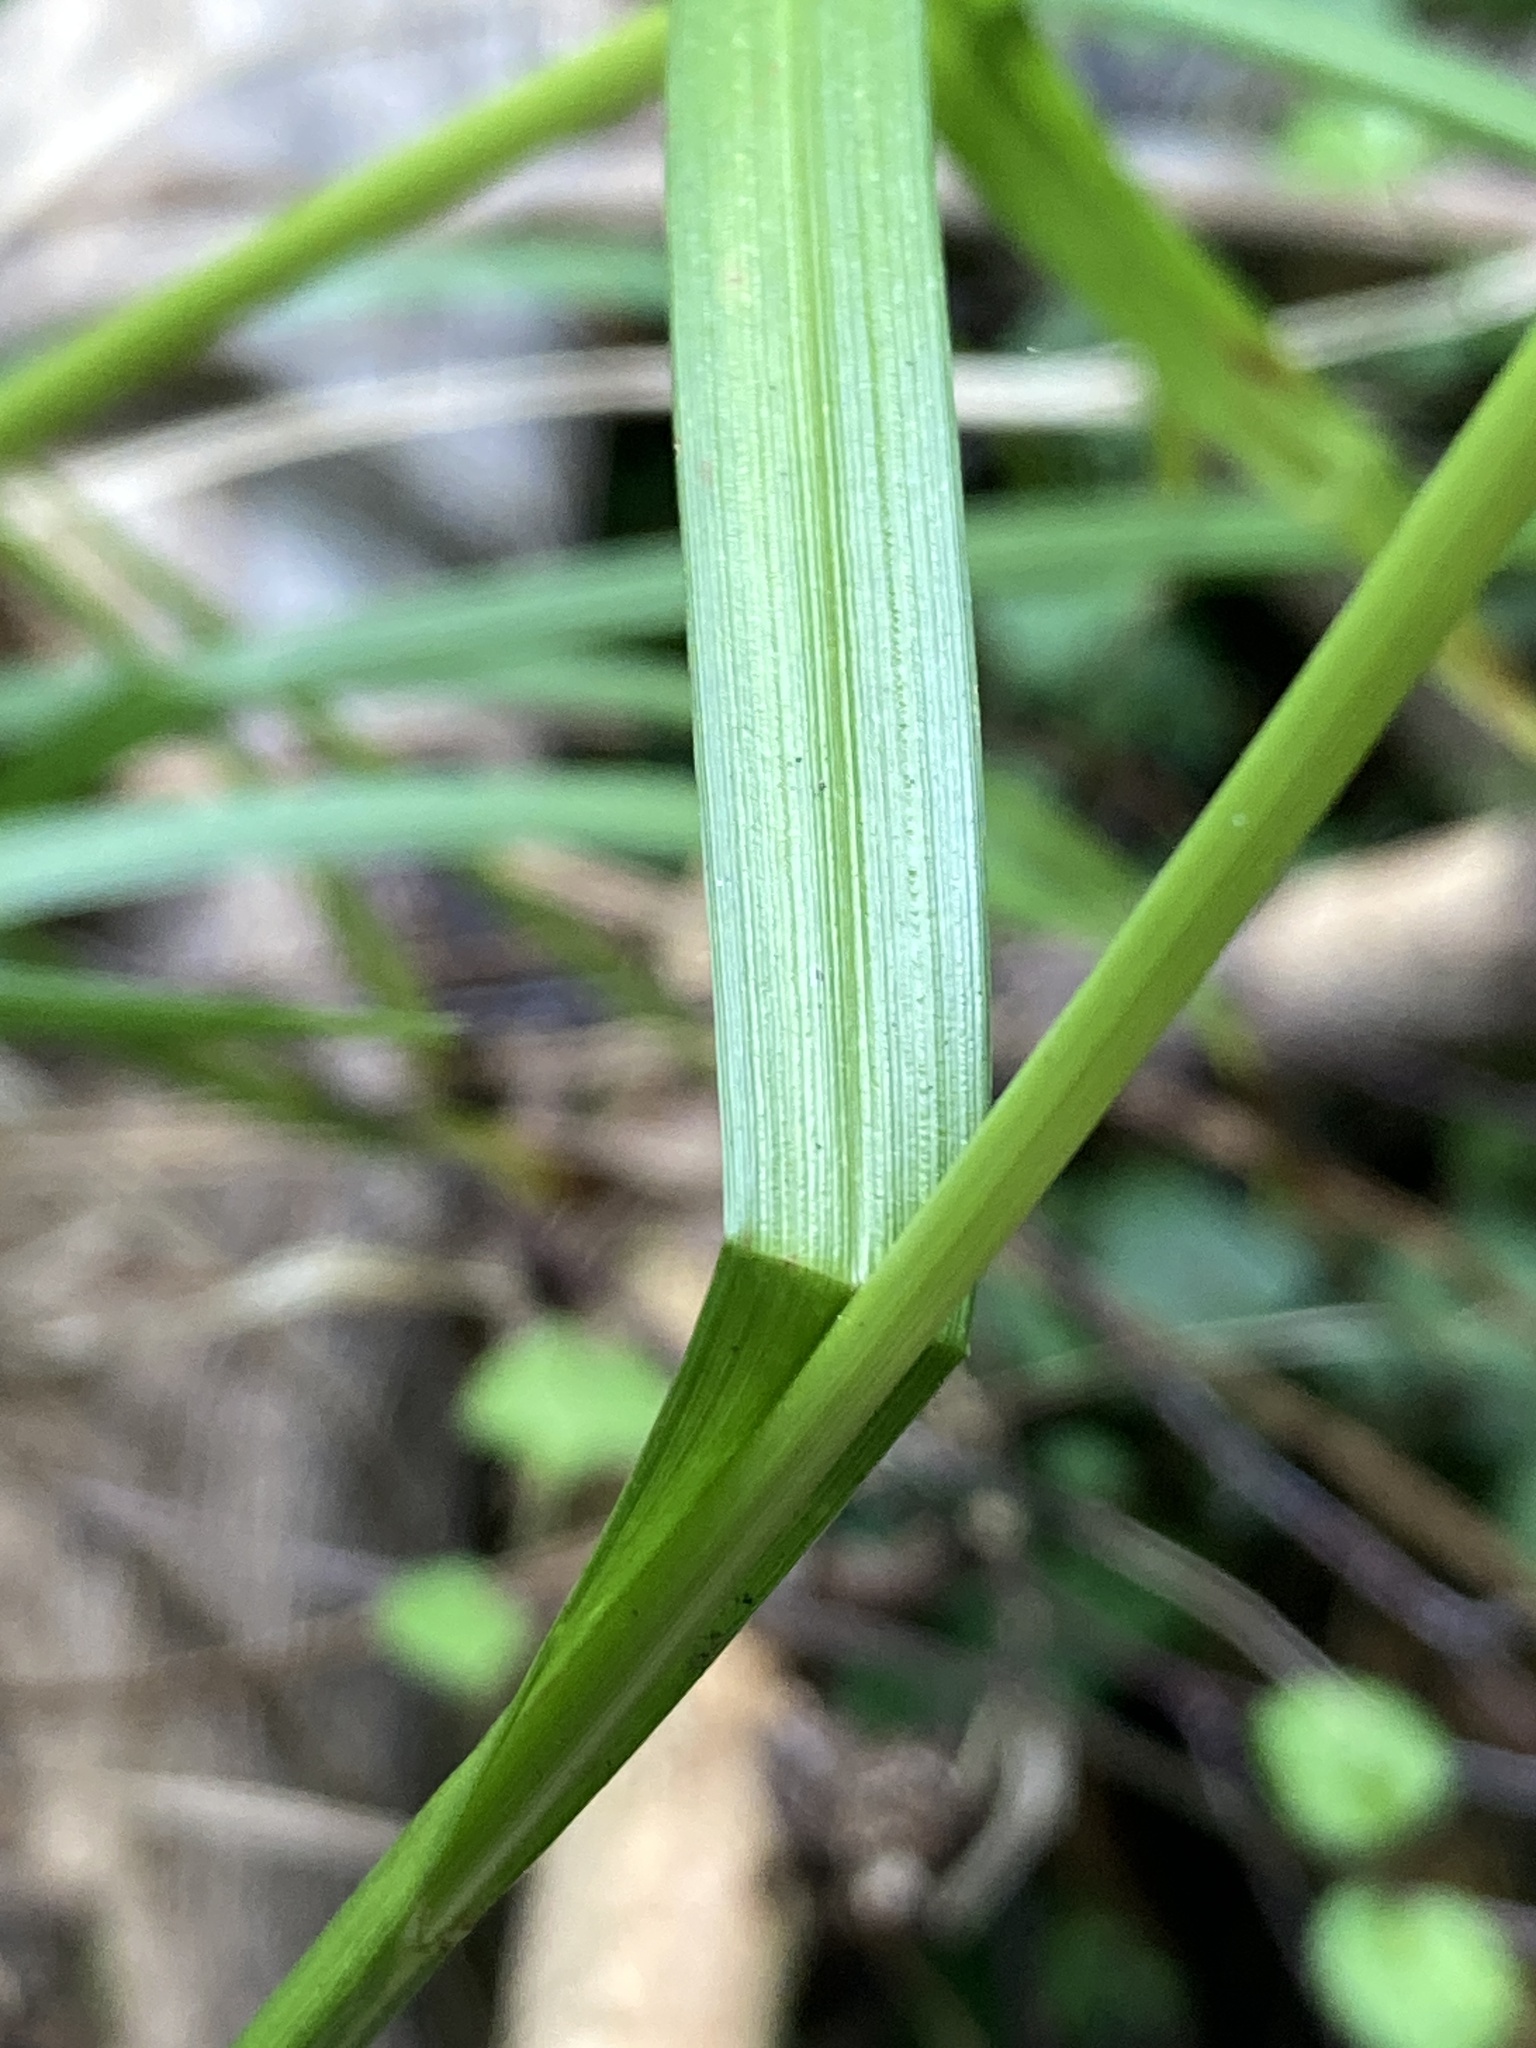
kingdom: Plantae
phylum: Tracheophyta
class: Liliopsida
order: Poales
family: Cyperaceae
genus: Carex
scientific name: Carex sylvatica
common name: Wood-sedge
